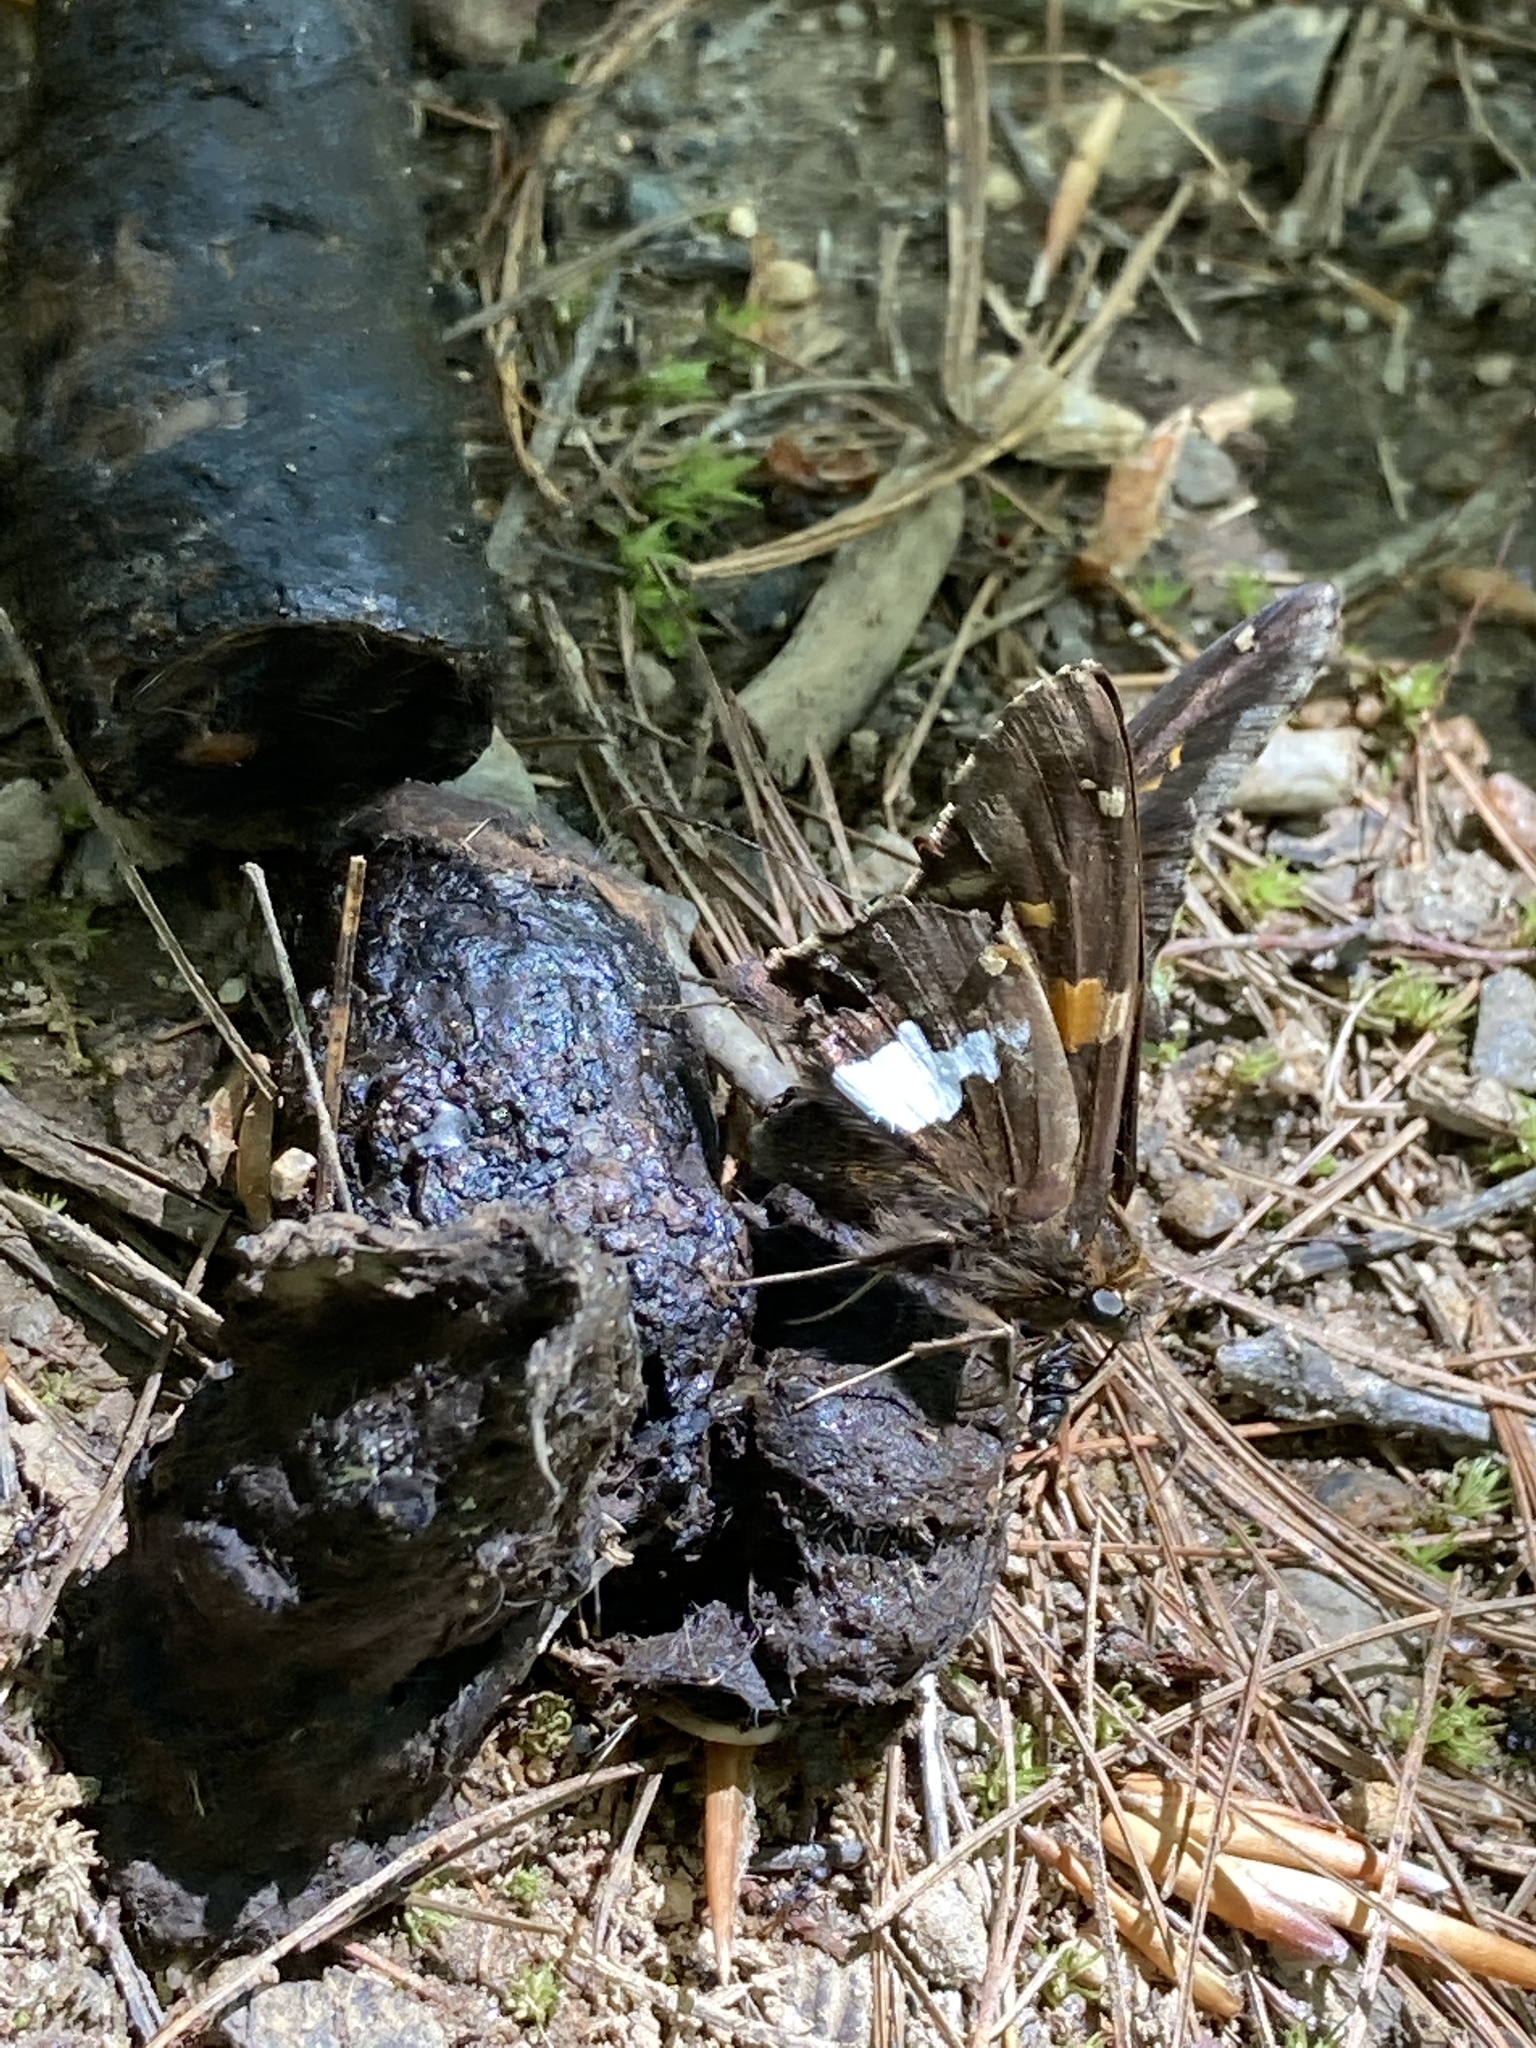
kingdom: Animalia
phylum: Arthropoda
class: Insecta
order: Lepidoptera
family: Hesperiidae
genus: Epargyreus
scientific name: Epargyreus clarus
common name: Silver-spotted skipper
